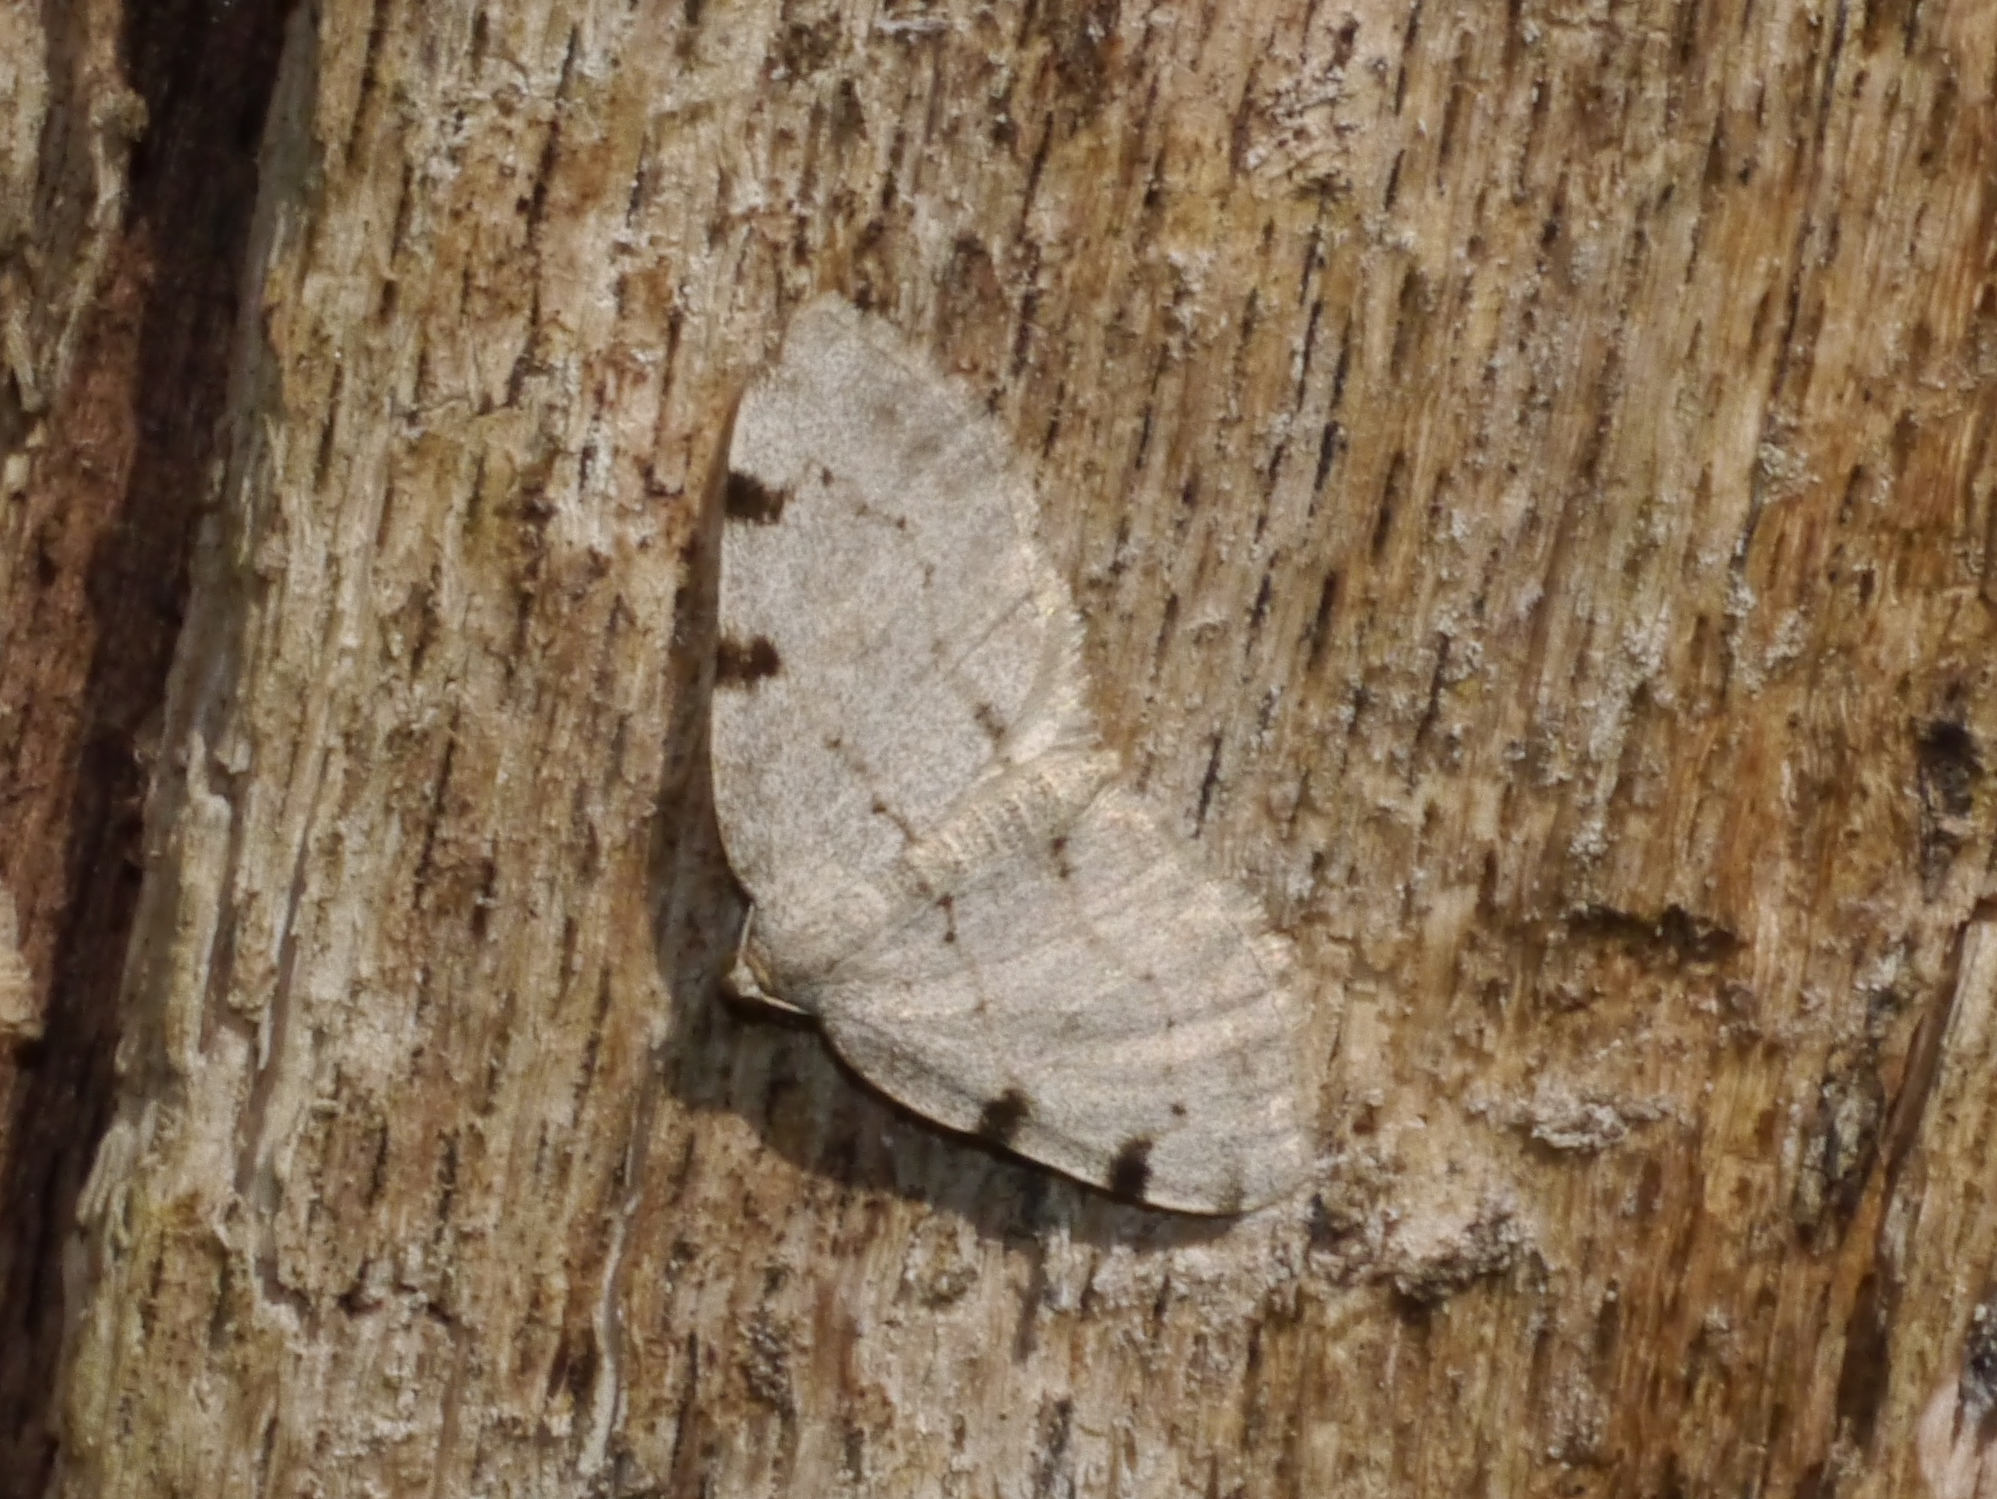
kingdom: Animalia
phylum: Arthropoda
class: Insecta
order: Lepidoptera
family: Geometridae
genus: Heterophleps
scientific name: Heterophleps refusaria
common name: Three-patched bigwing
